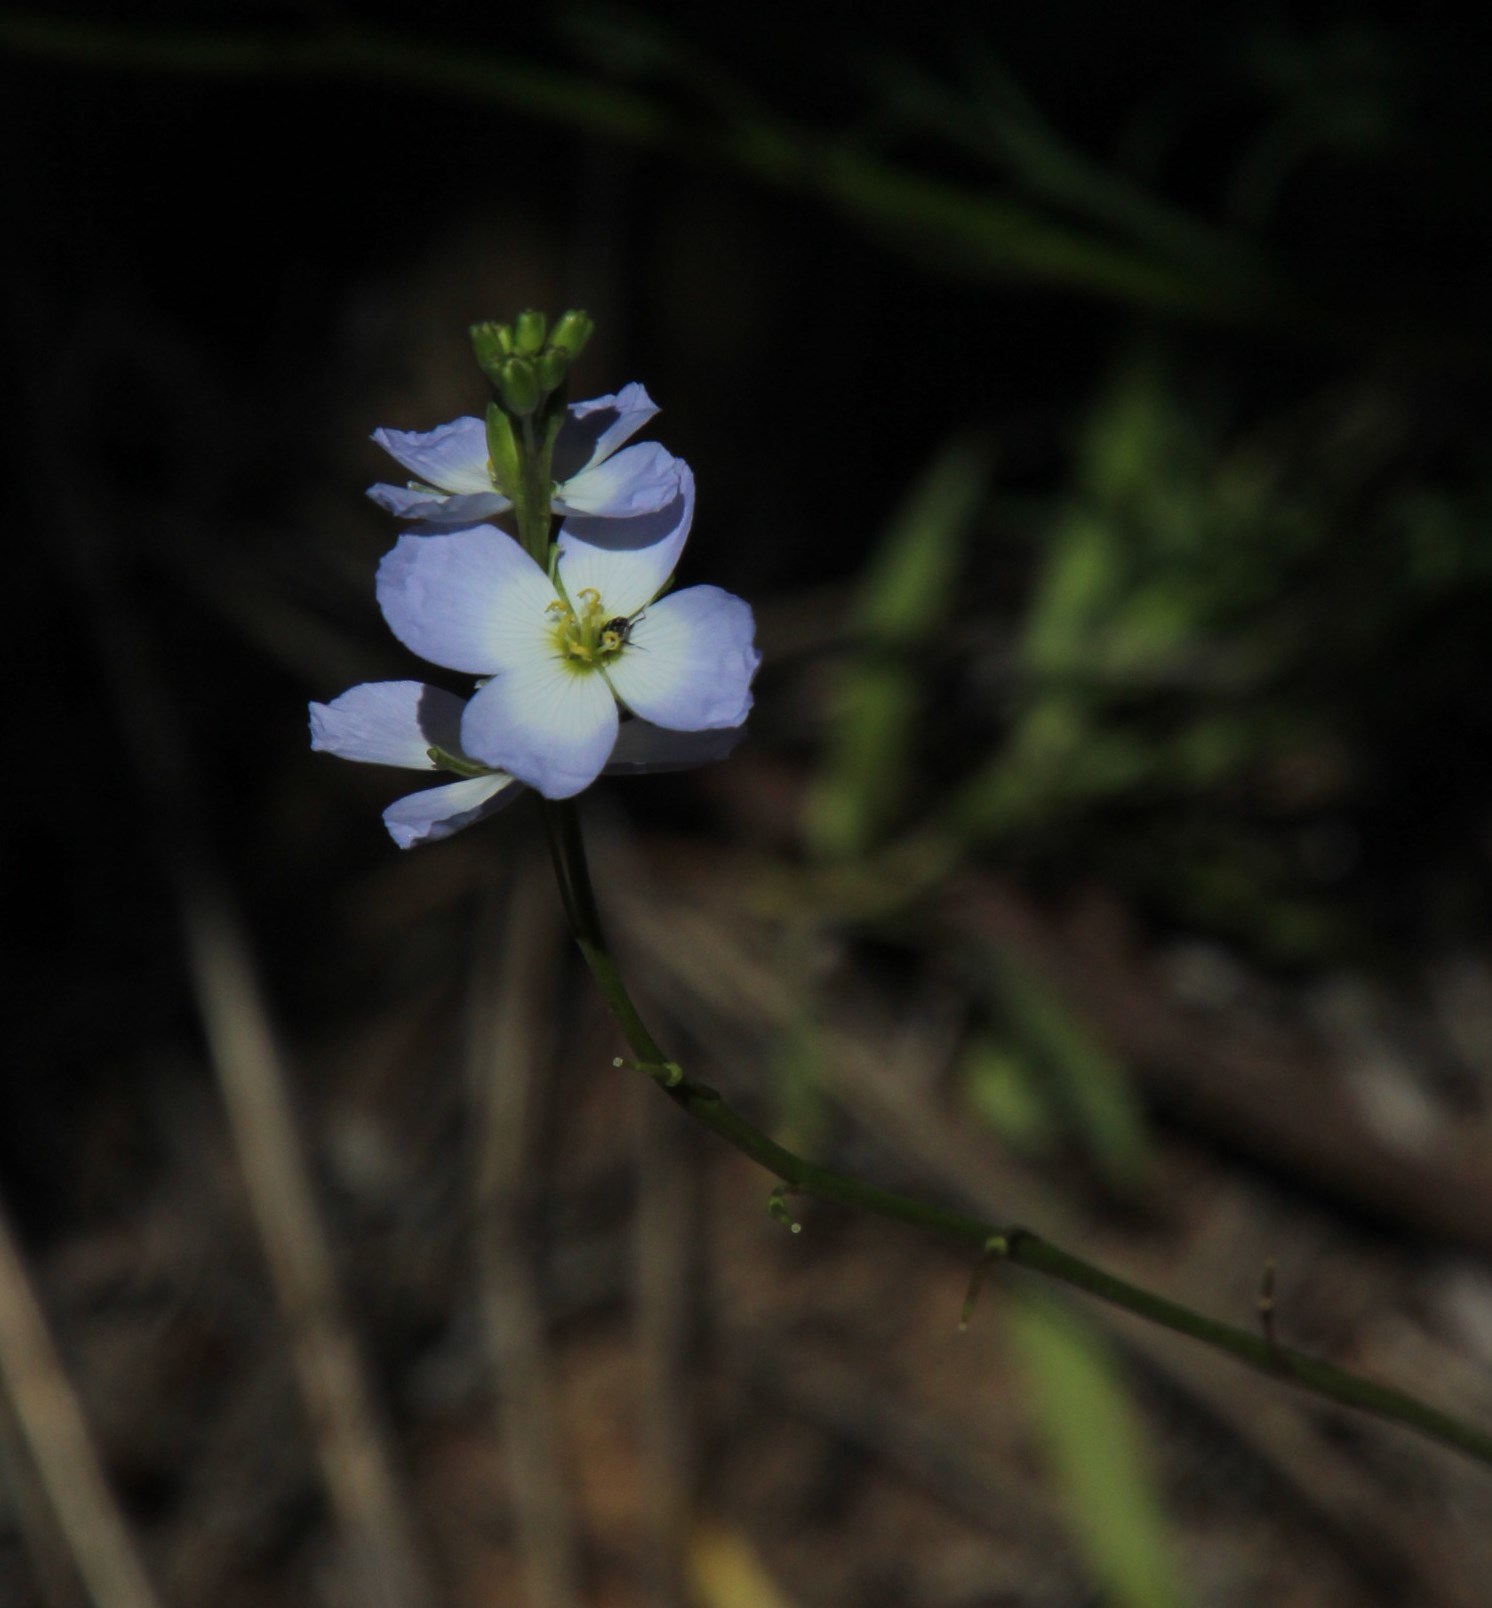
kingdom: Plantae
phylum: Tracheophyta
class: Magnoliopsida
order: Brassicales
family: Brassicaceae
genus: Heliophila
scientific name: Heliophila coronopifolia
